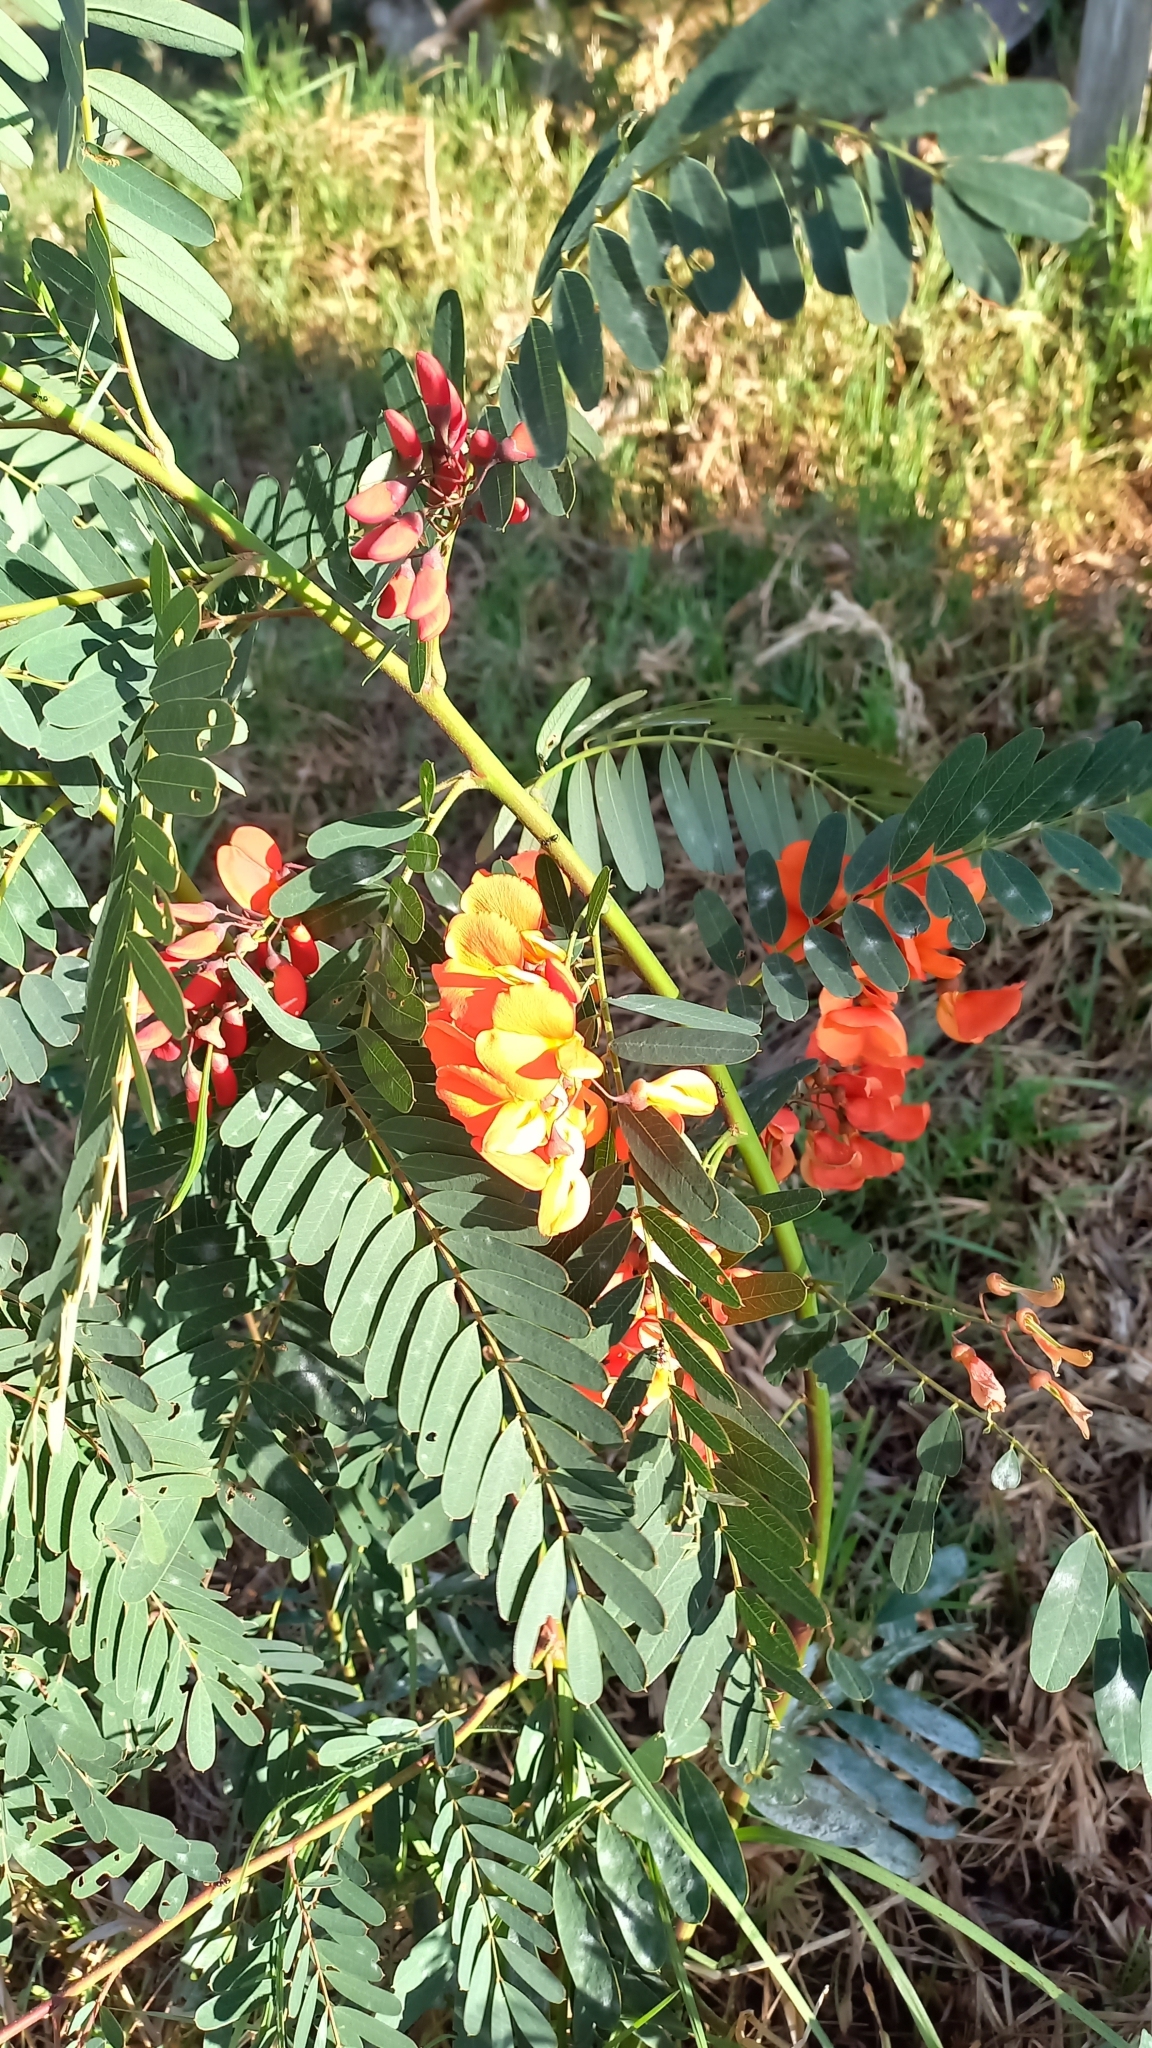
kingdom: Plantae
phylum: Tracheophyta
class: Magnoliopsida
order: Fabales
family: Fabaceae
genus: Sesbania
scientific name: Sesbania punicea
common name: Rattlebox
